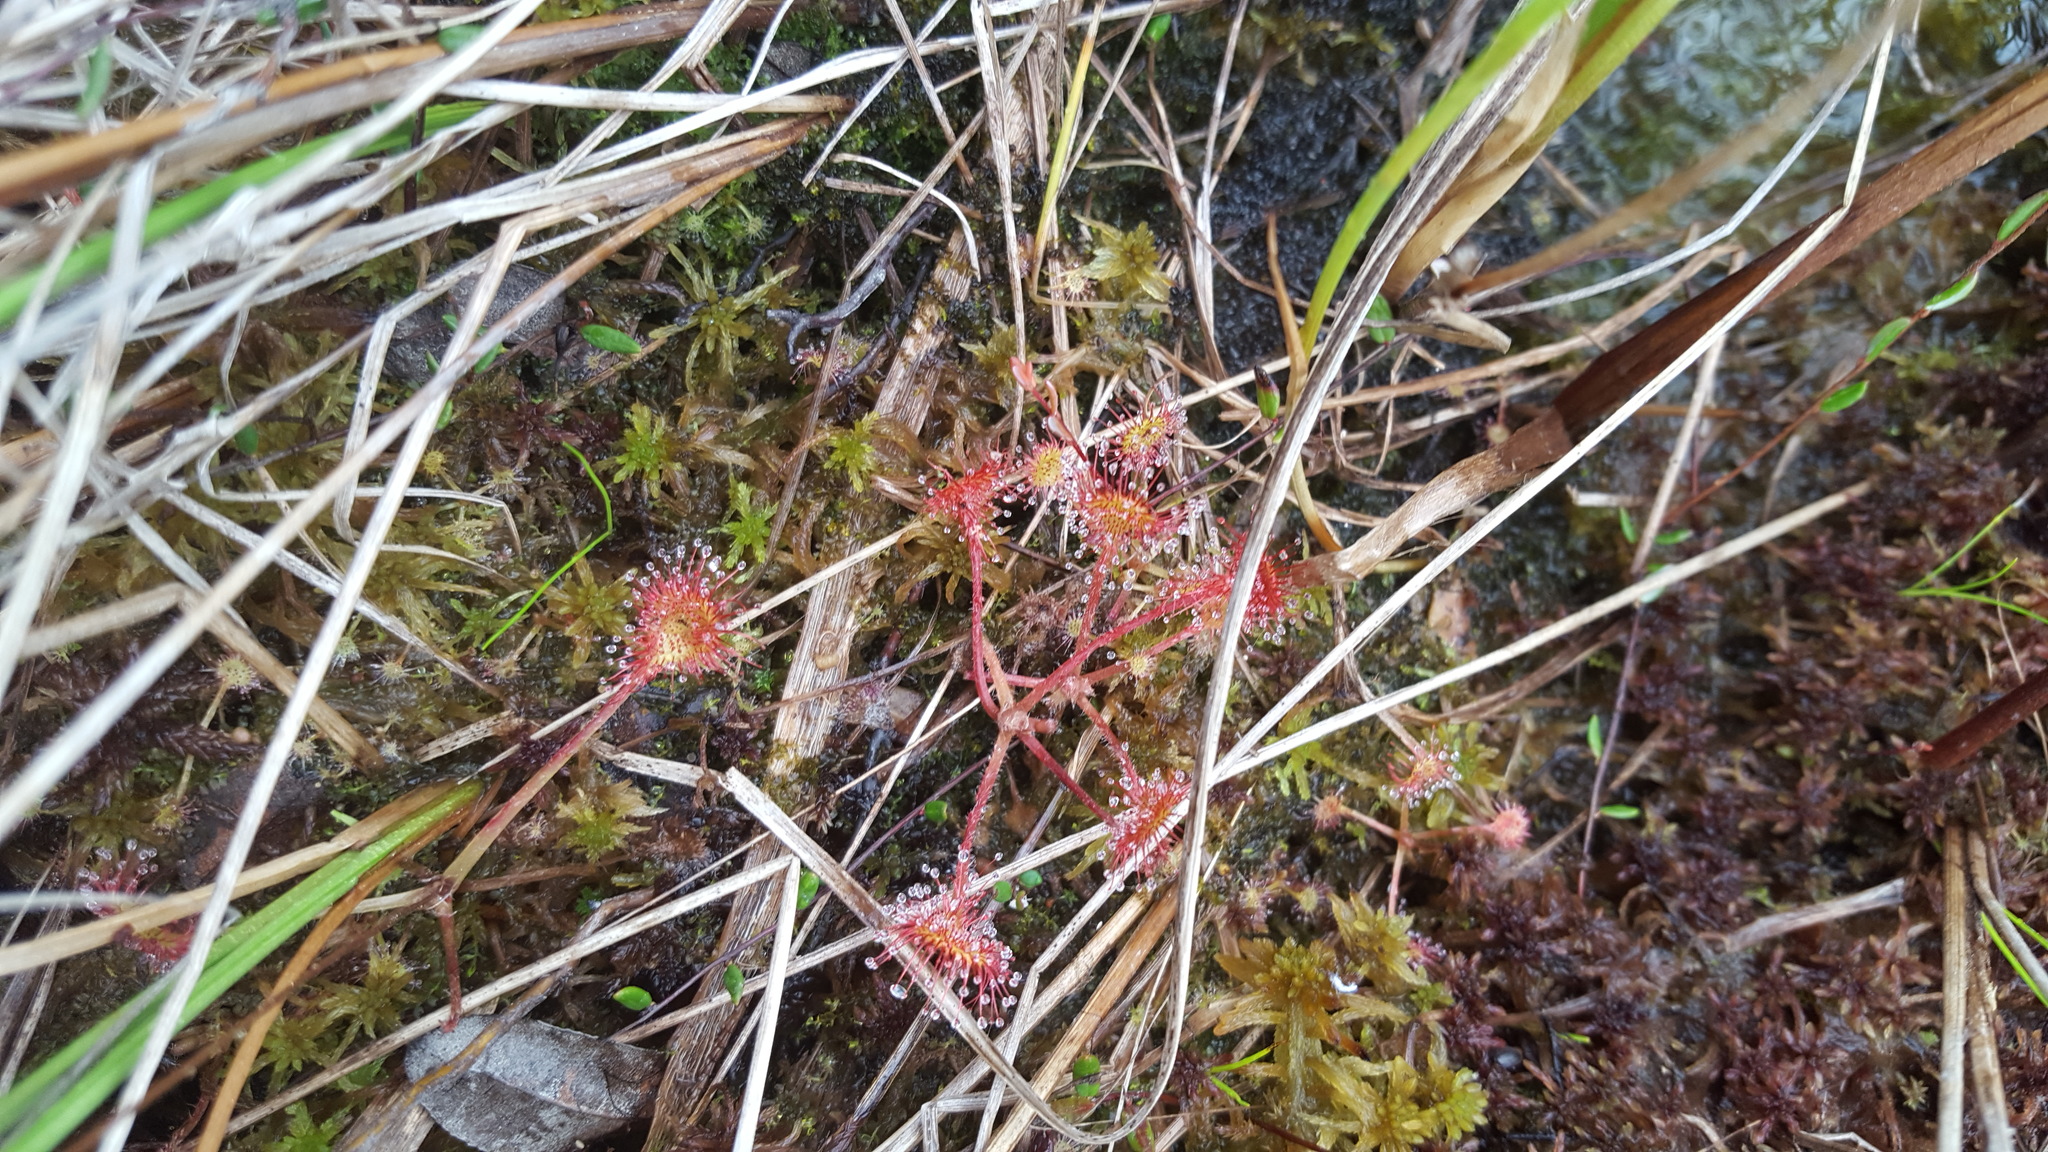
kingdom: Plantae
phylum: Tracheophyta
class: Magnoliopsida
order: Caryophyllales
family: Droseraceae
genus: Drosera
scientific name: Drosera rotundifolia
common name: Round-leaved sundew
